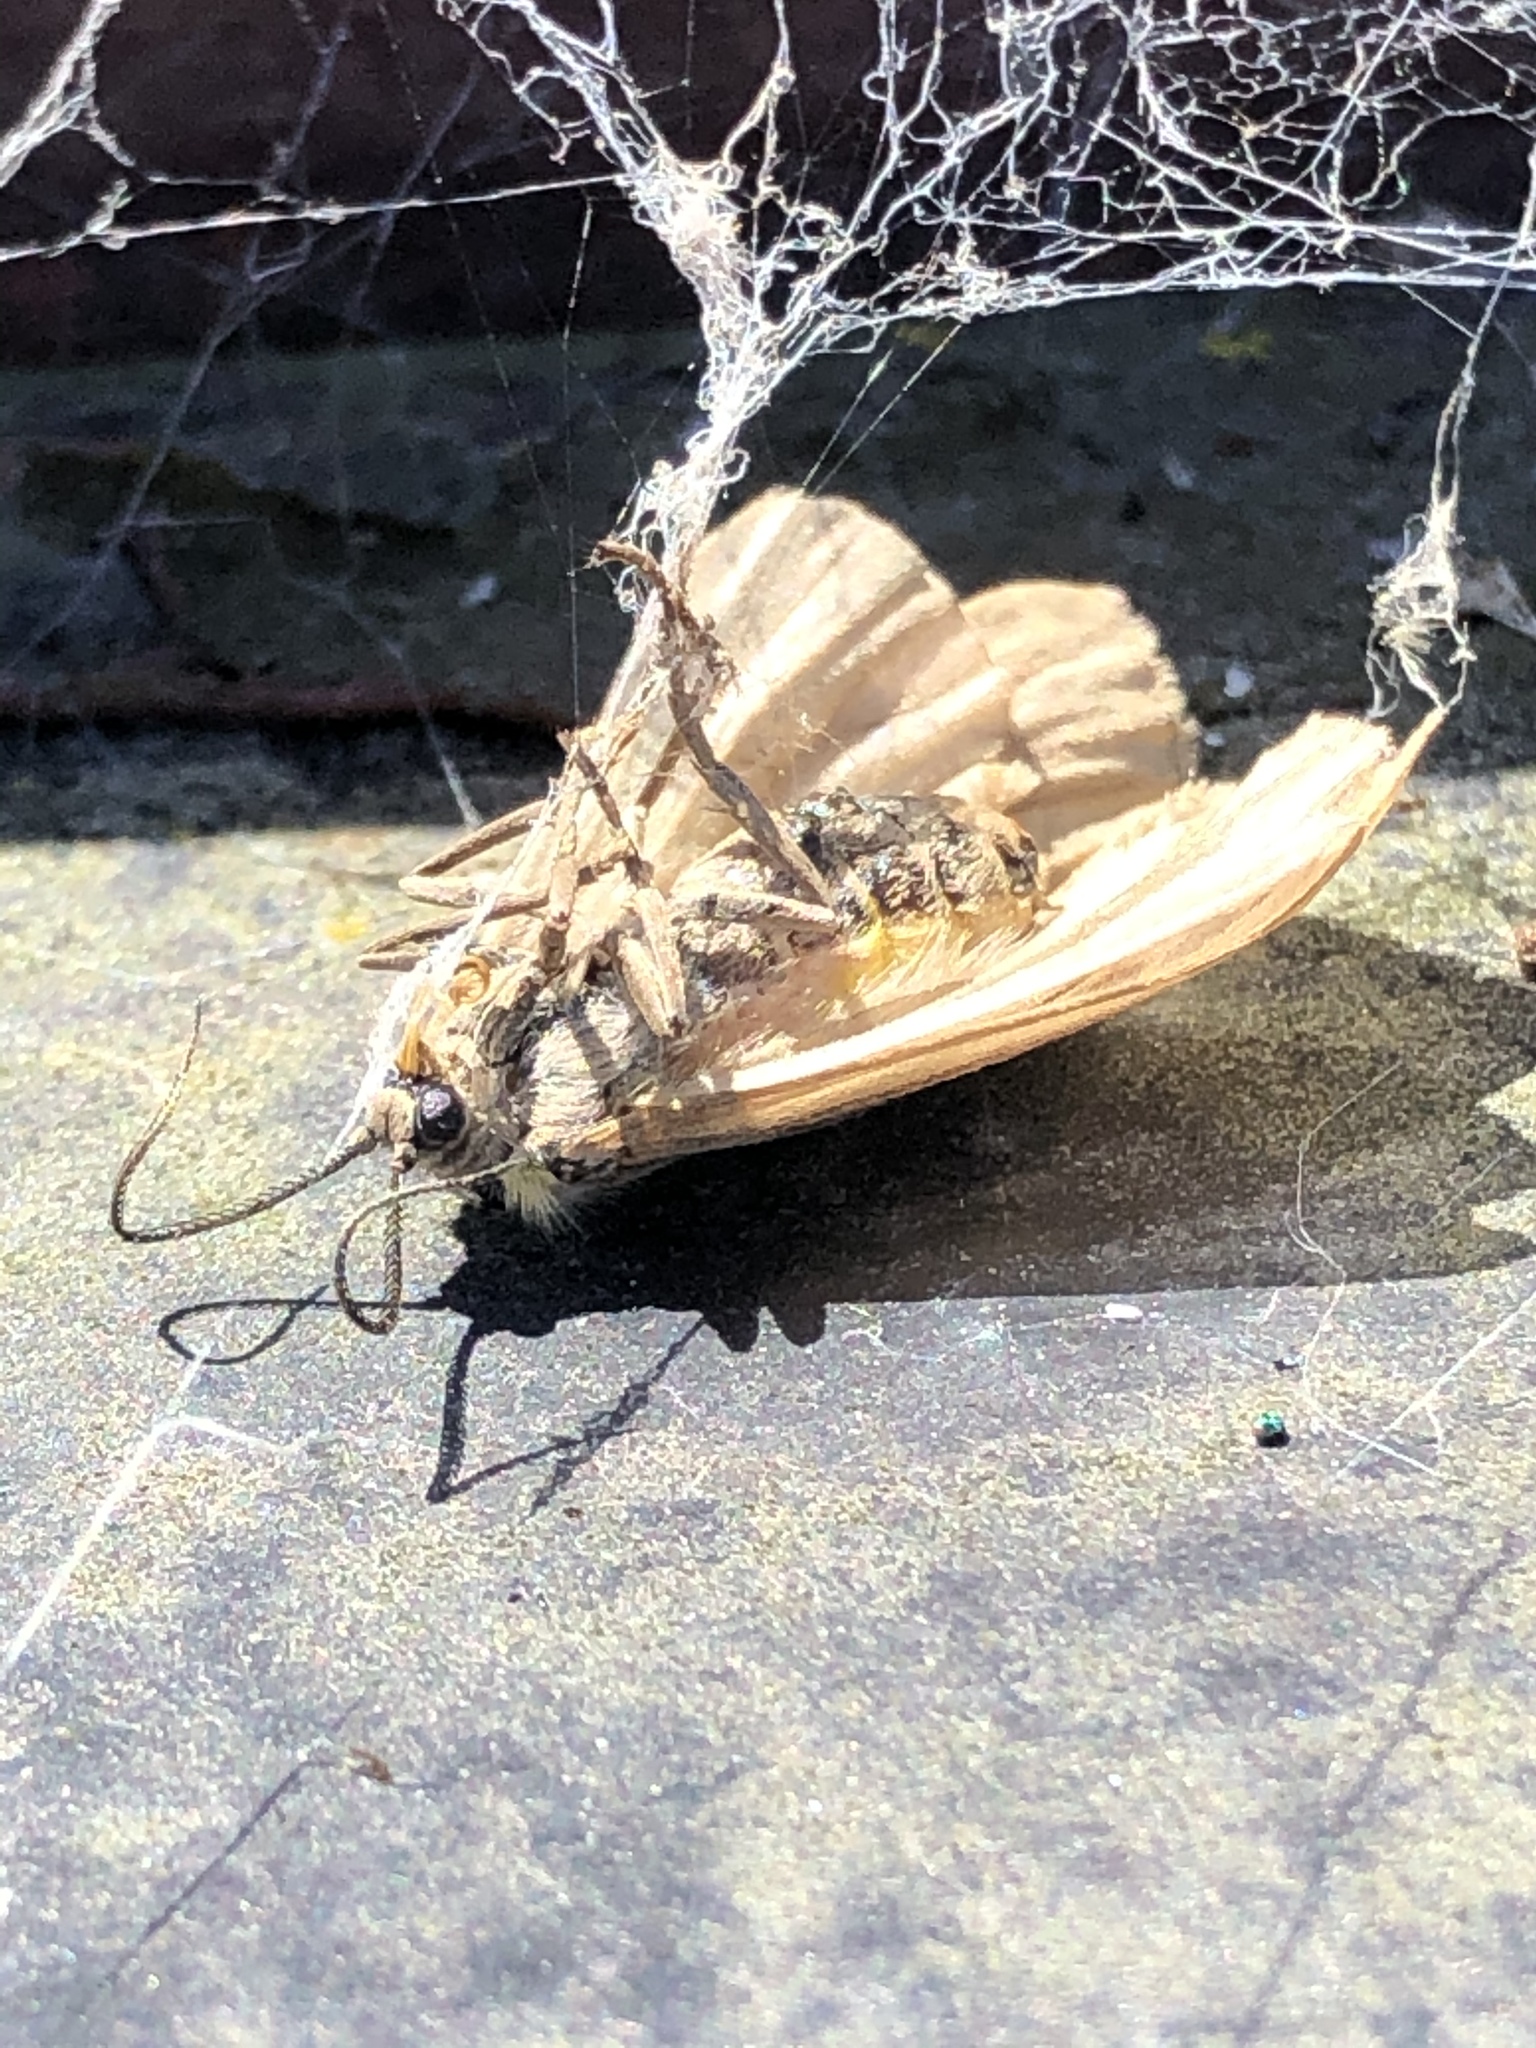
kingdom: Animalia
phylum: Arthropoda
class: Insecta
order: Lepidoptera
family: Notodontidae
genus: Phryganidia
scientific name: Phryganidia californica
